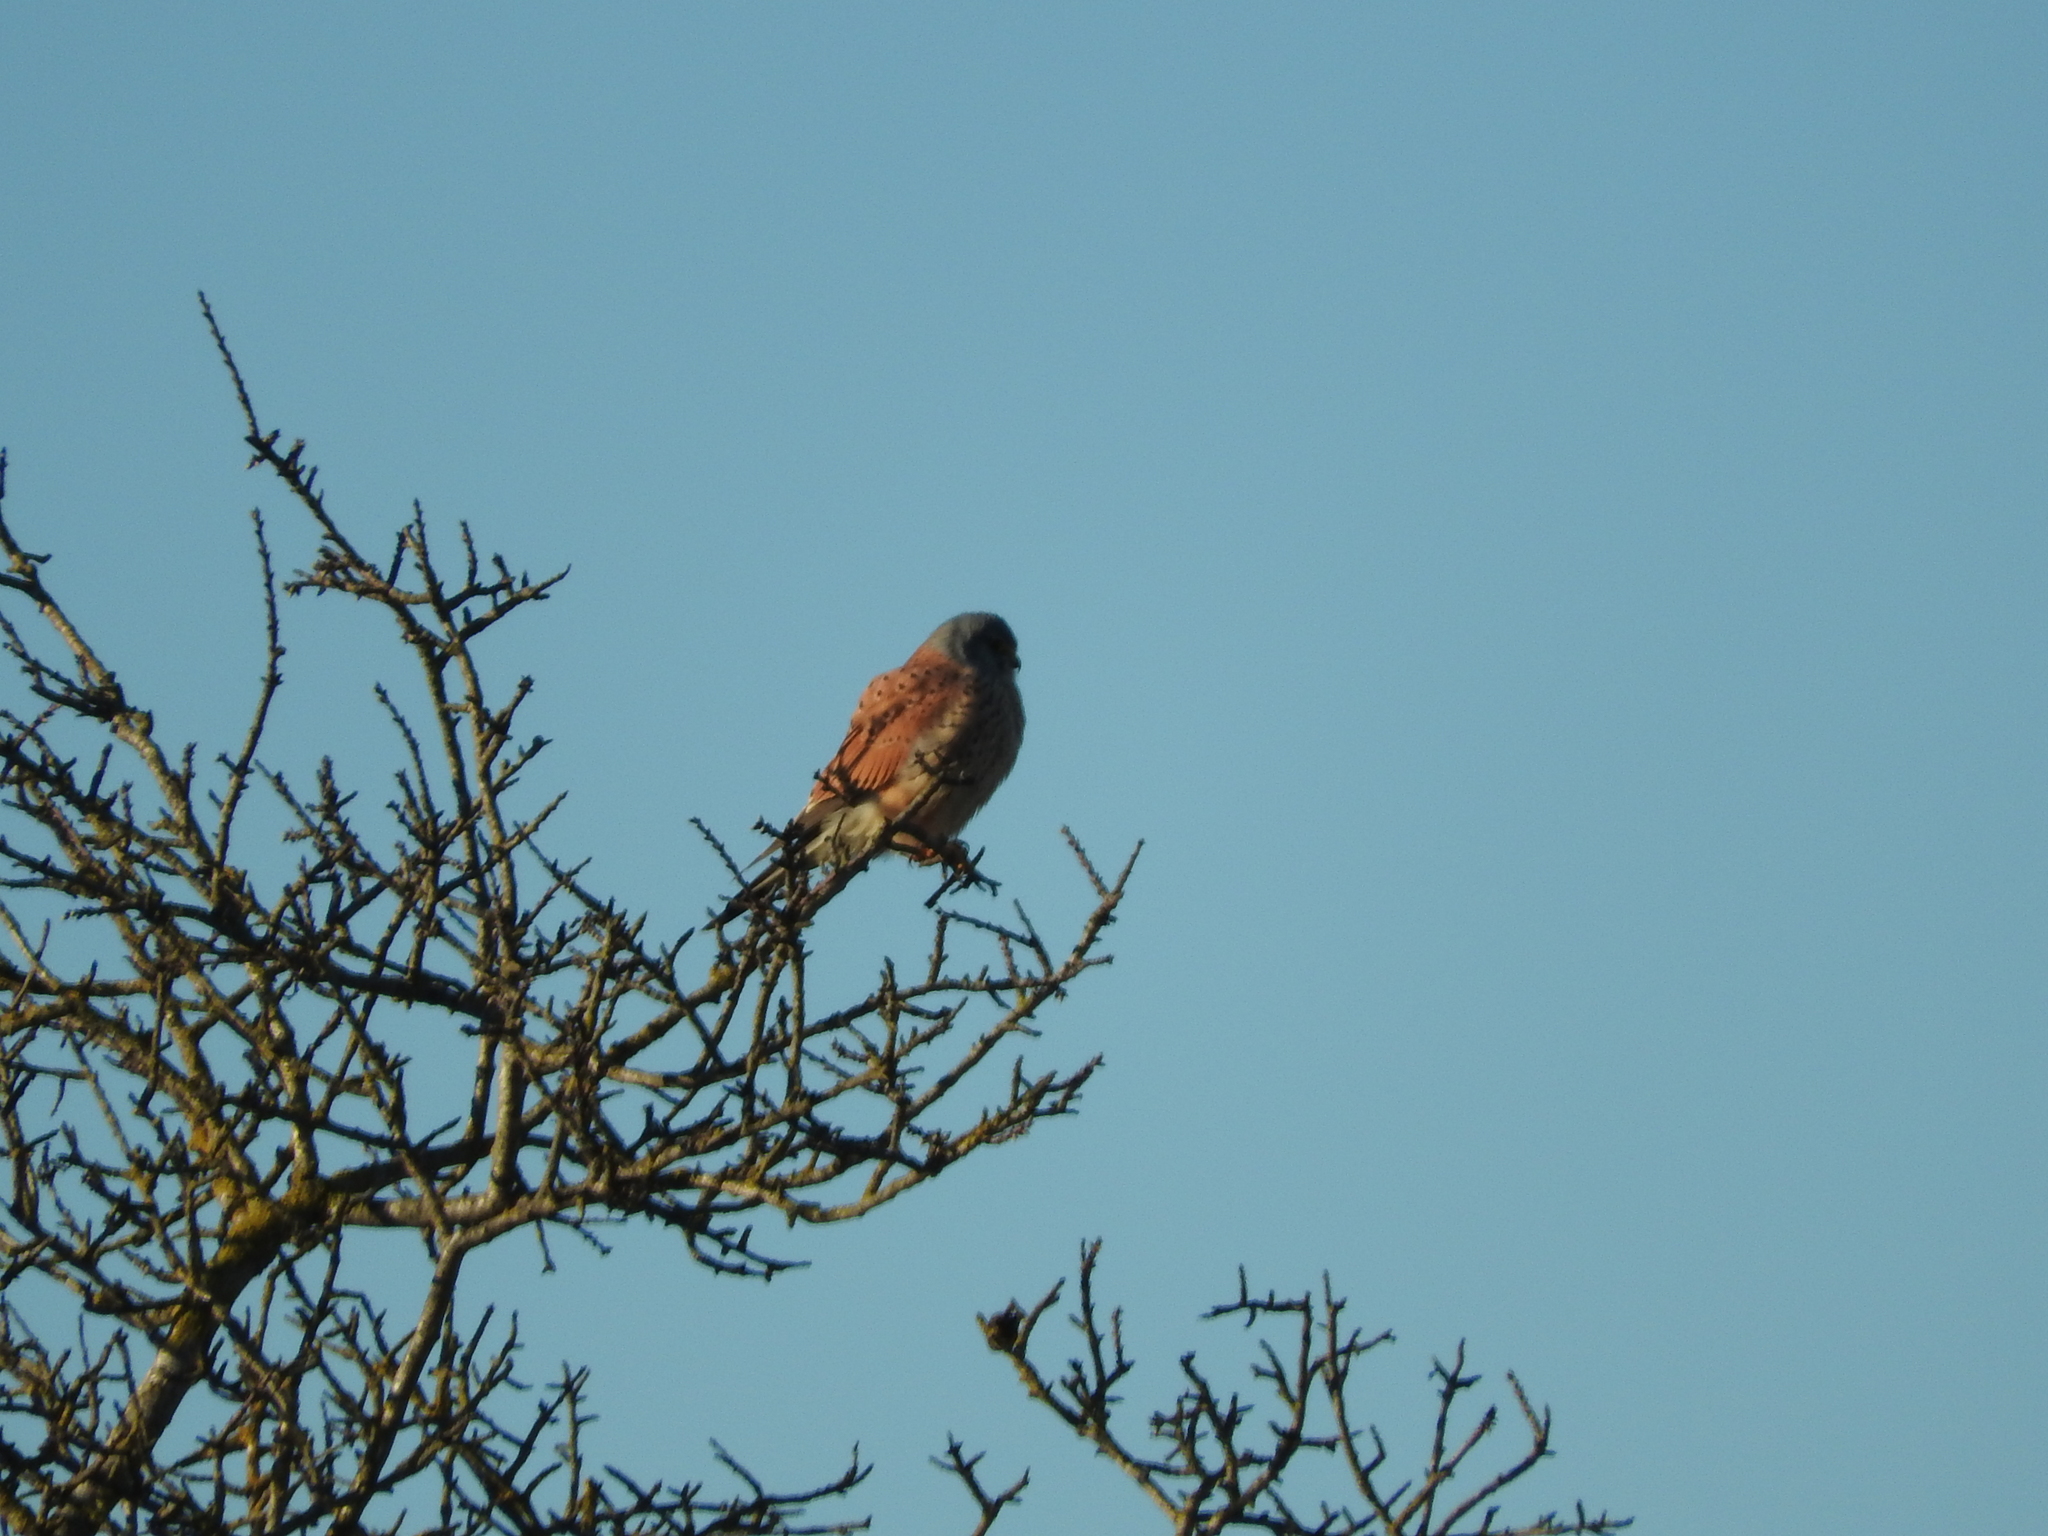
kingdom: Animalia
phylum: Chordata
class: Aves
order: Falconiformes
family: Falconidae
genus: Falco
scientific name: Falco tinnunculus
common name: Common kestrel
